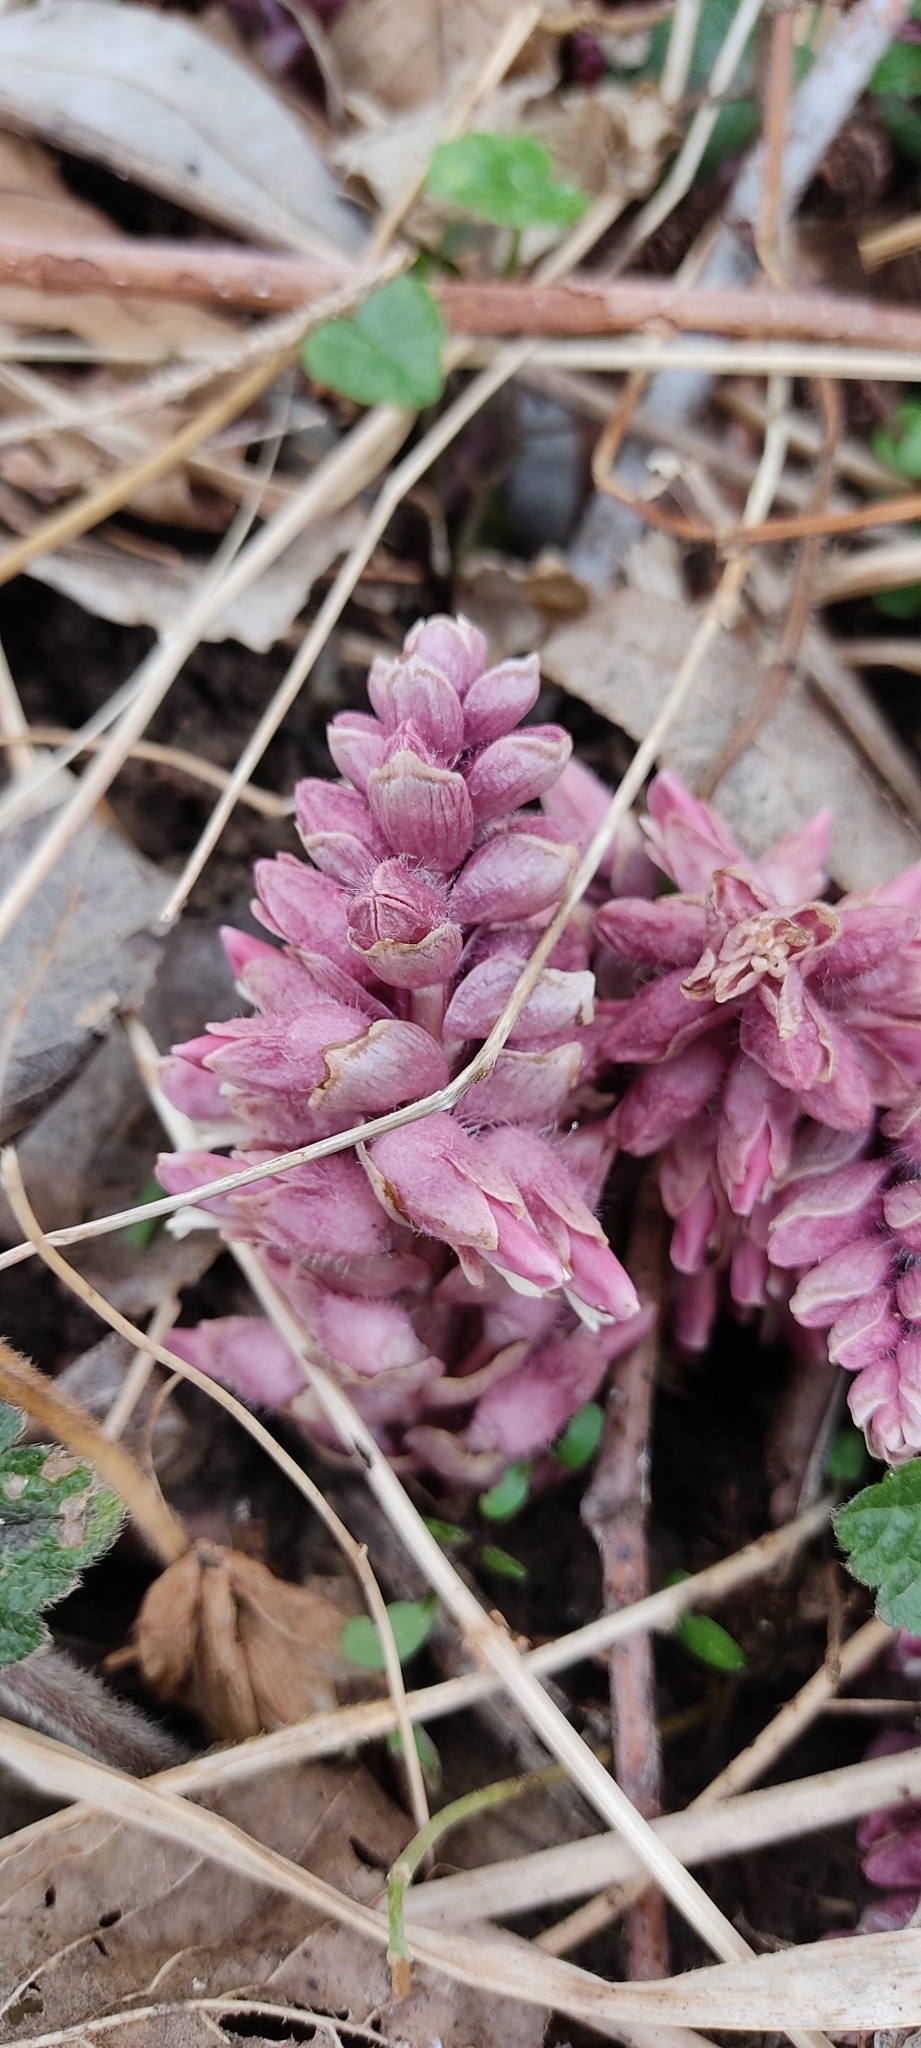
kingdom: Plantae
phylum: Tracheophyta
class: Magnoliopsida
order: Lamiales
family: Orobanchaceae
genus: Lathraea
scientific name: Lathraea squamaria
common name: Toothwort
